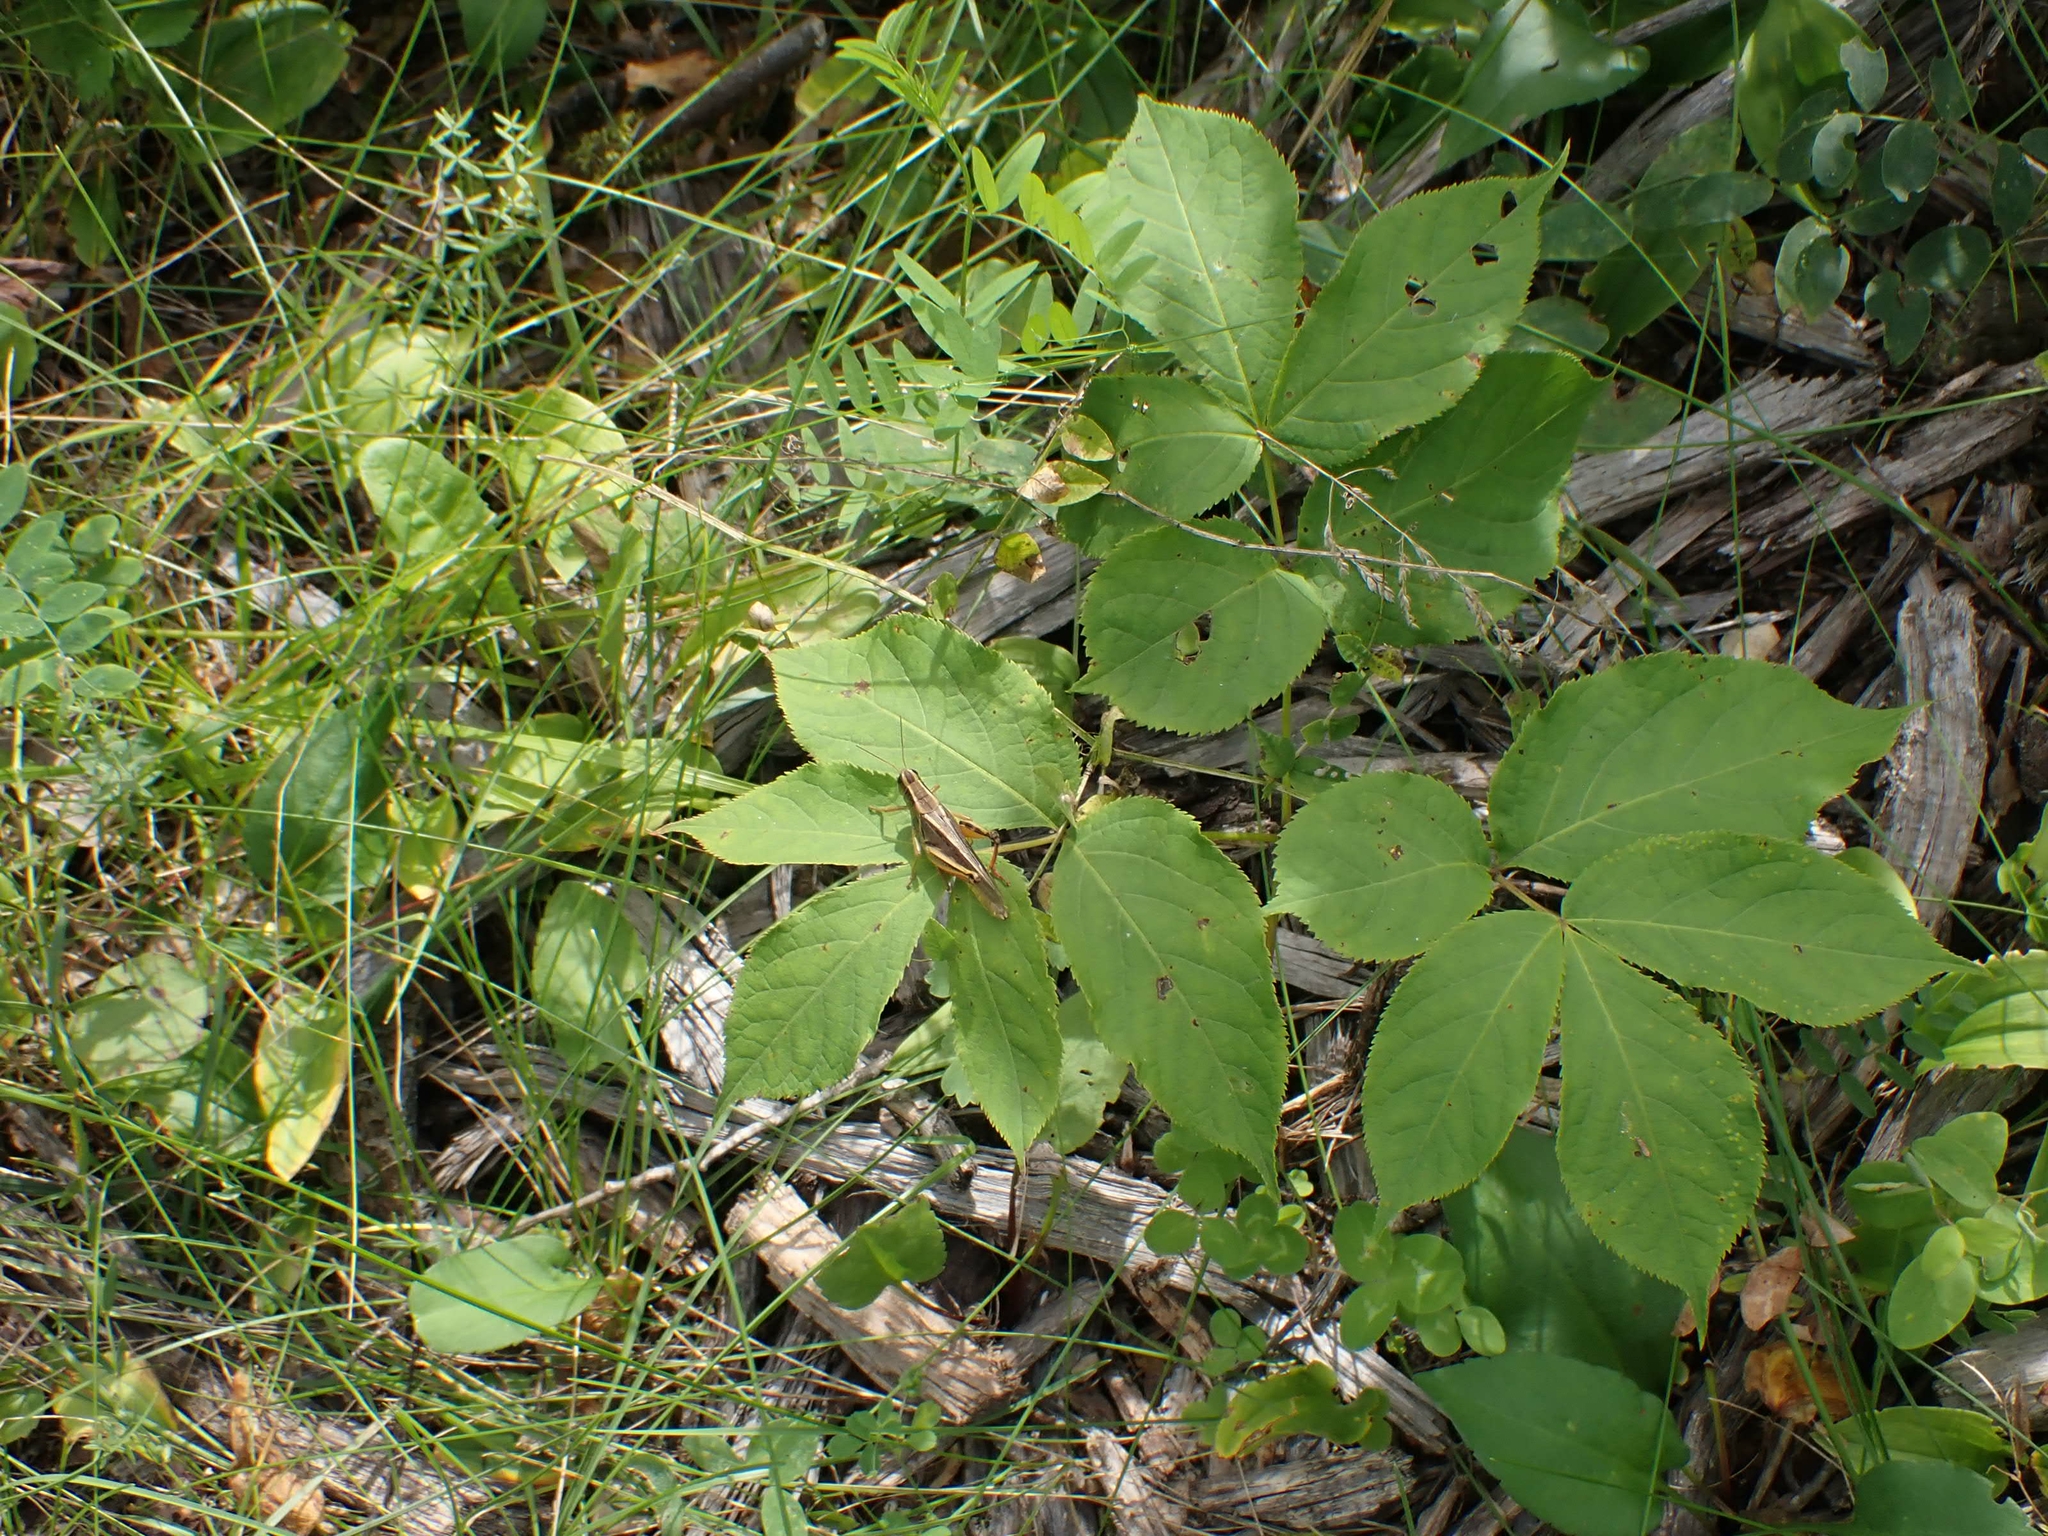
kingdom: Plantae
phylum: Tracheophyta
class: Magnoliopsida
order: Apiales
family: Araliaceae
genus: Aralia
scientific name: Aralia nudicaulis
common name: Wild sarsaparilla
